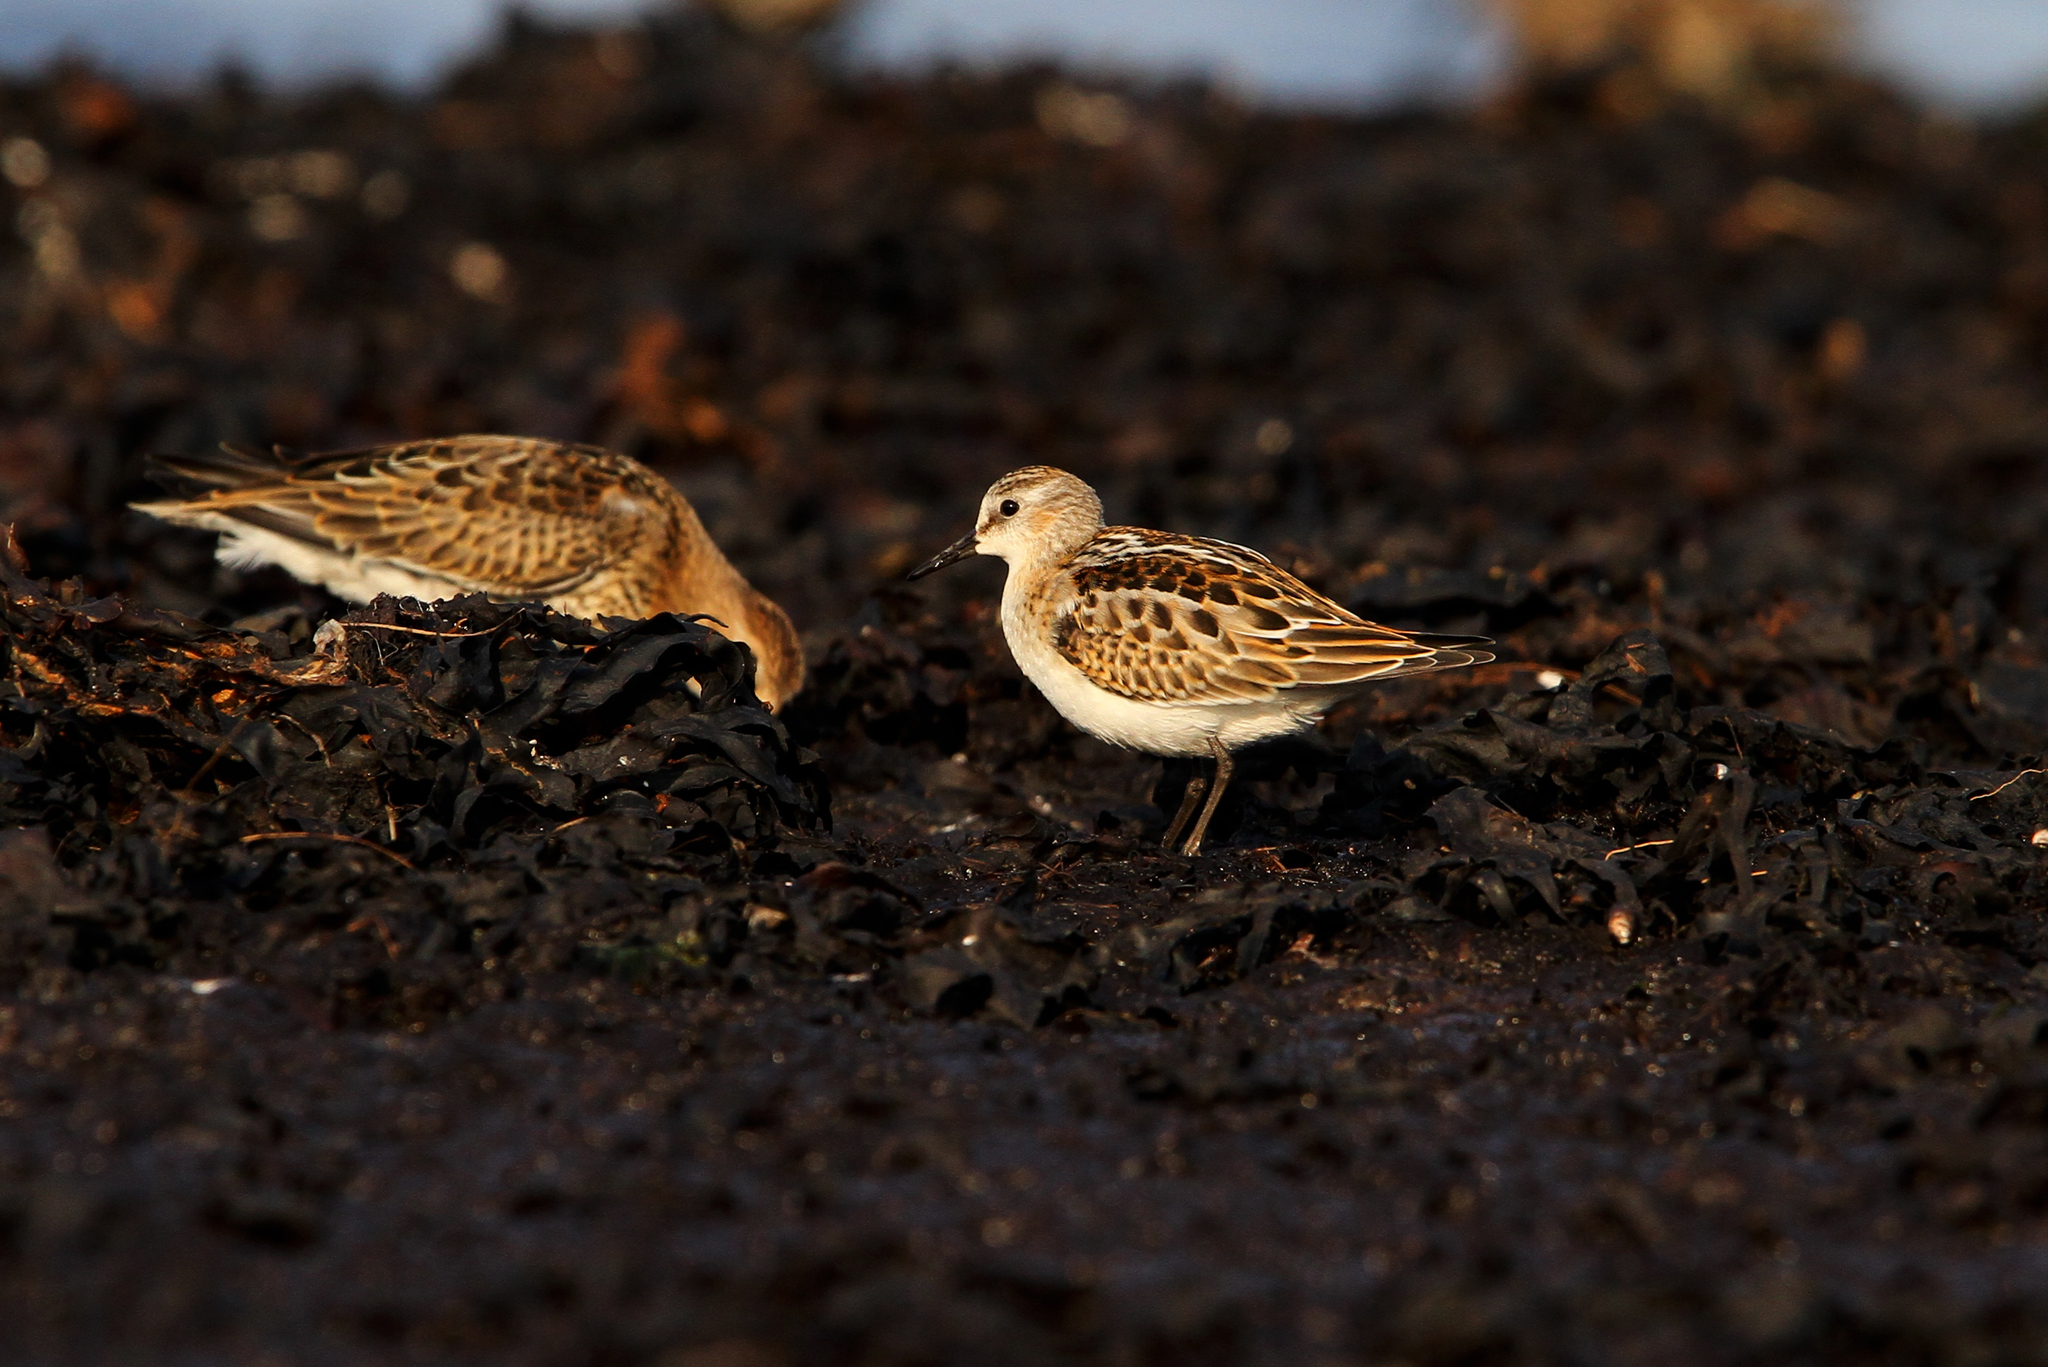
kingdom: Animalia
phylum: Chordata
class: Aves
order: Charadriiformes
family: Scolopacidae
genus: Calidris
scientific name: Calidris minuta
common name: Little stint
